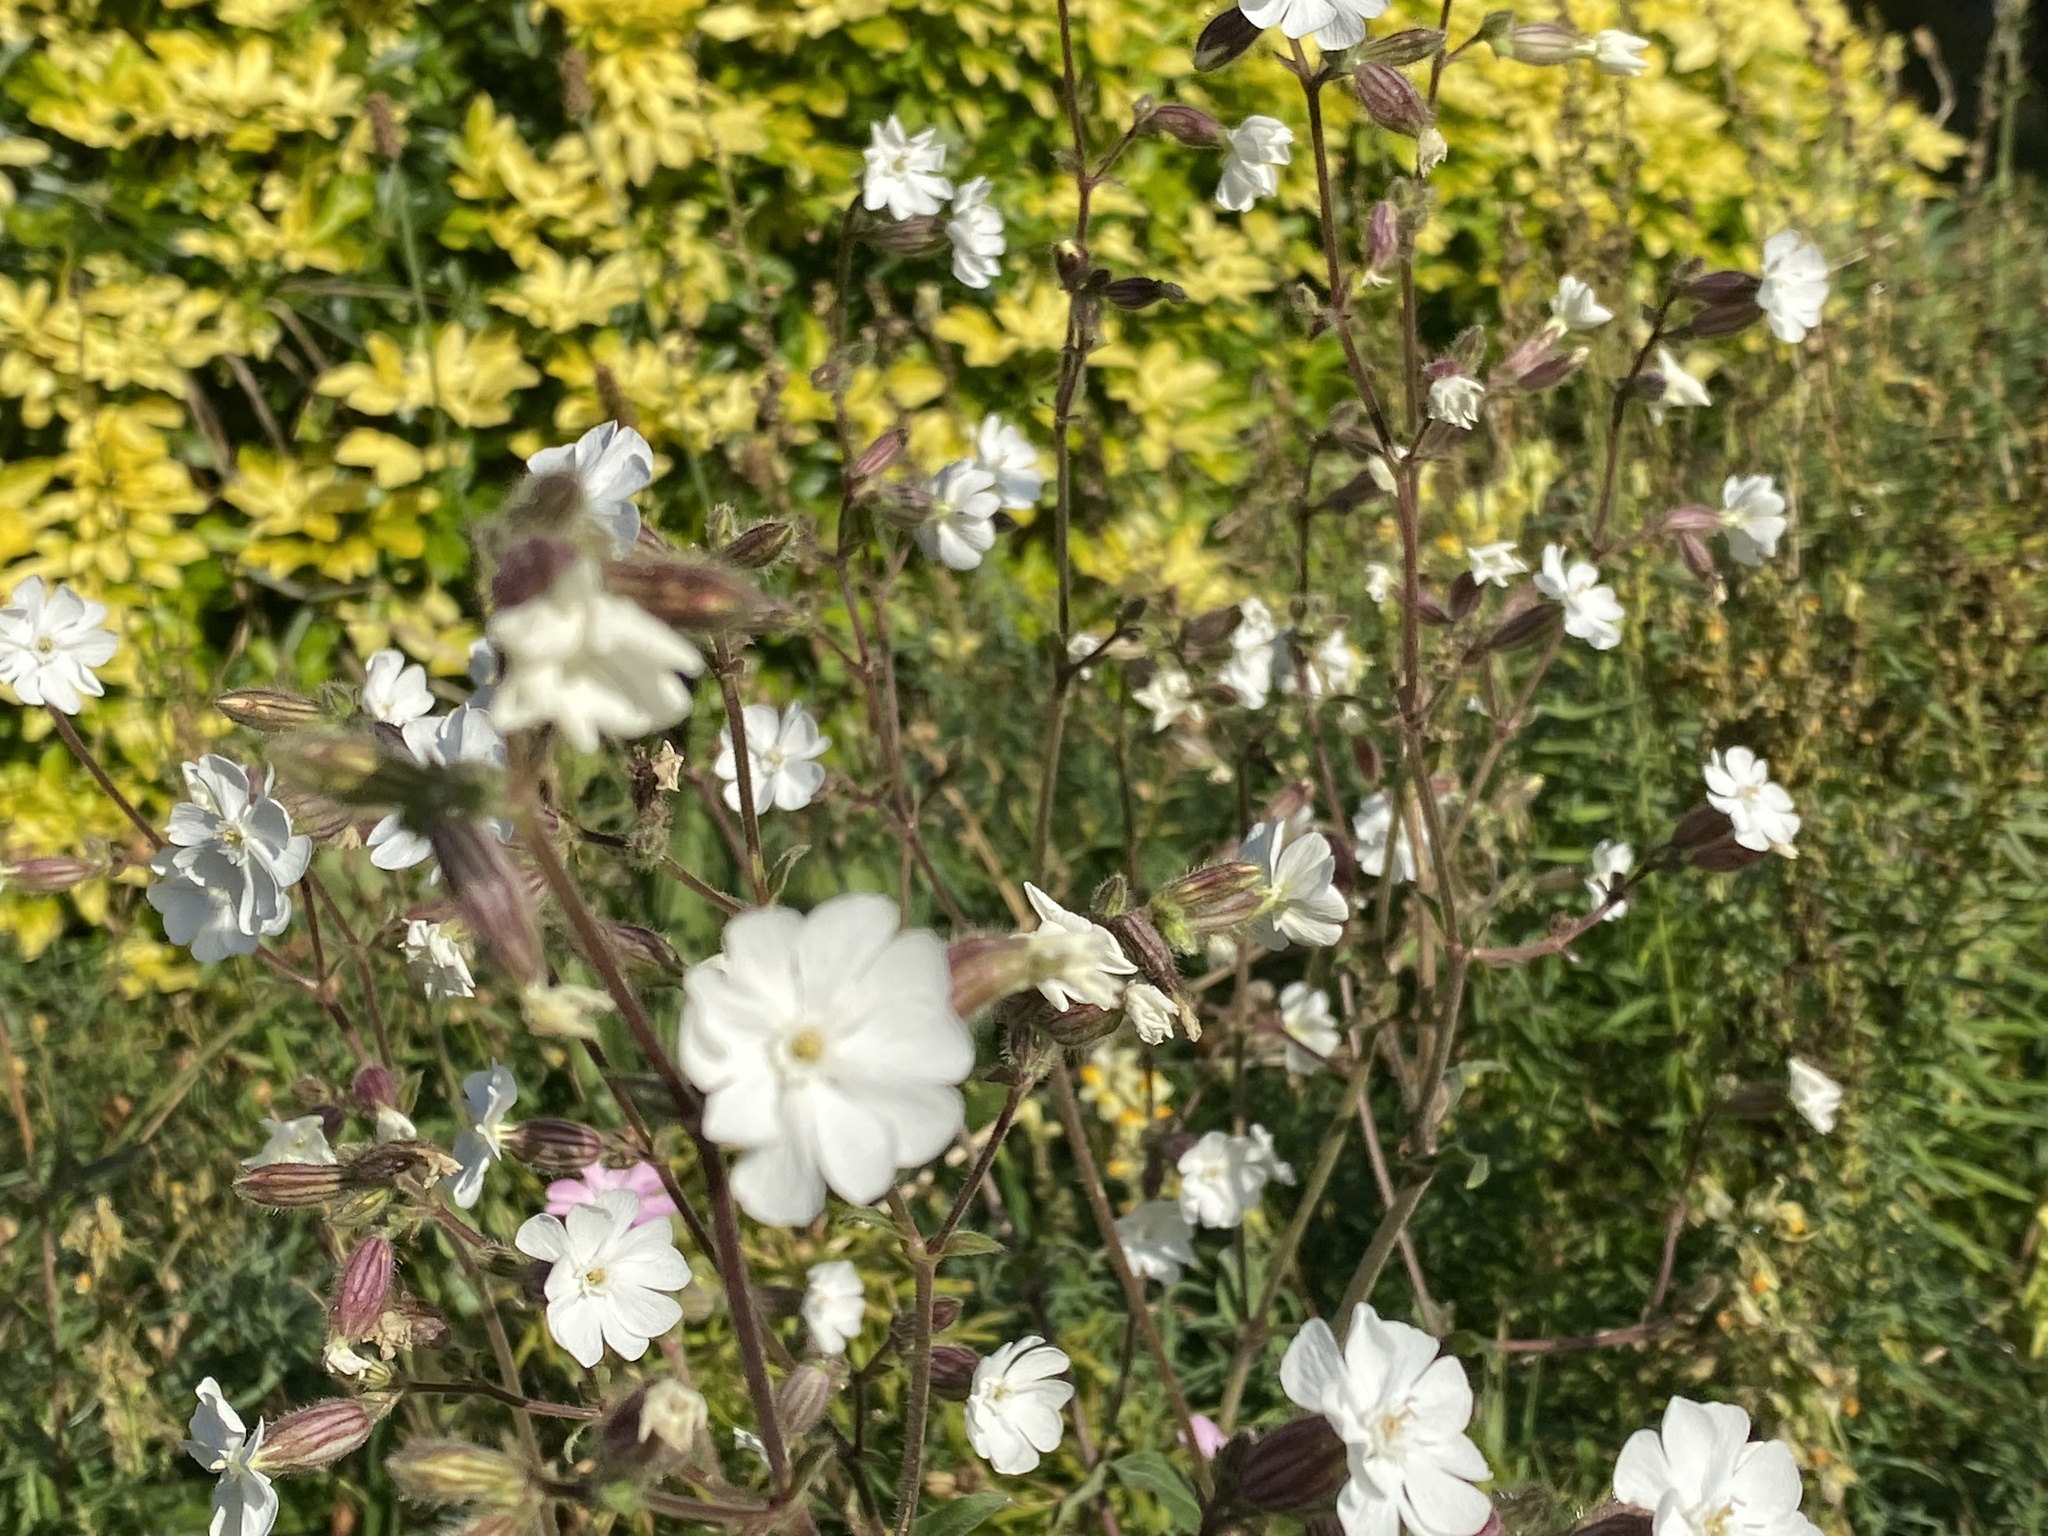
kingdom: Plantae
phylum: Tracheophyta
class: Magnoliopsida
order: Caryophyllales
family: Caryophyllaceae
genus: Silene
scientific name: Silene latifolia
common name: White campion
